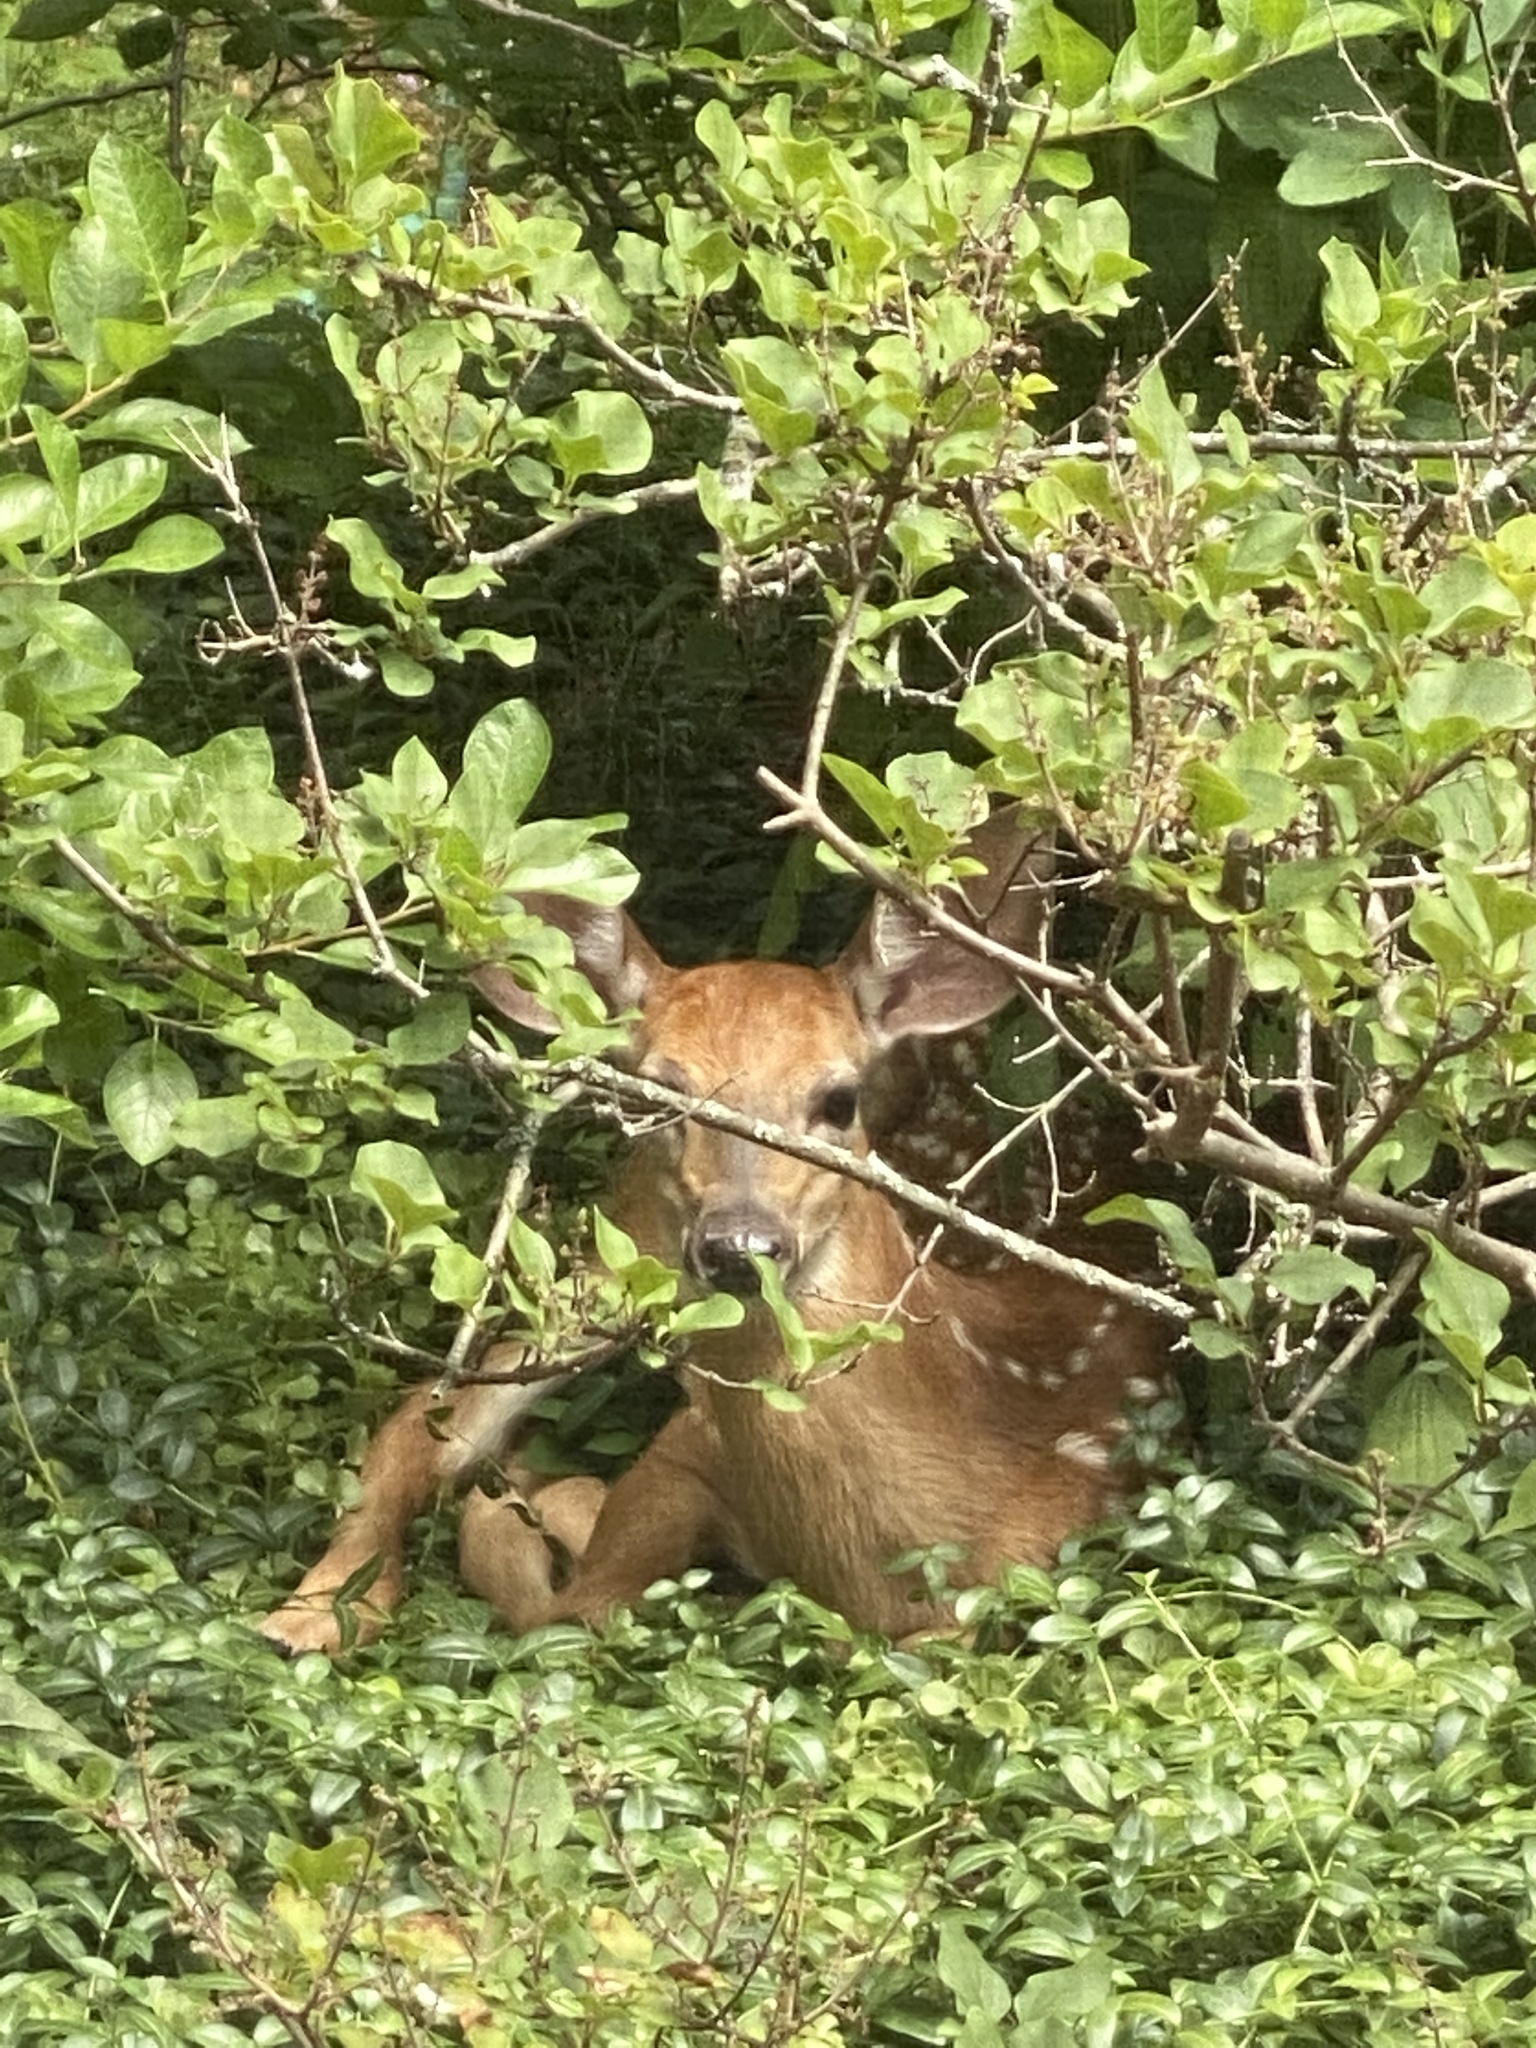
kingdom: Animalia
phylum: Chordata
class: Mammalia
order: Artiodactyla
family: Cervidae
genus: Odocoileus
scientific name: Odocoileus virginianus
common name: White-tailed deer
